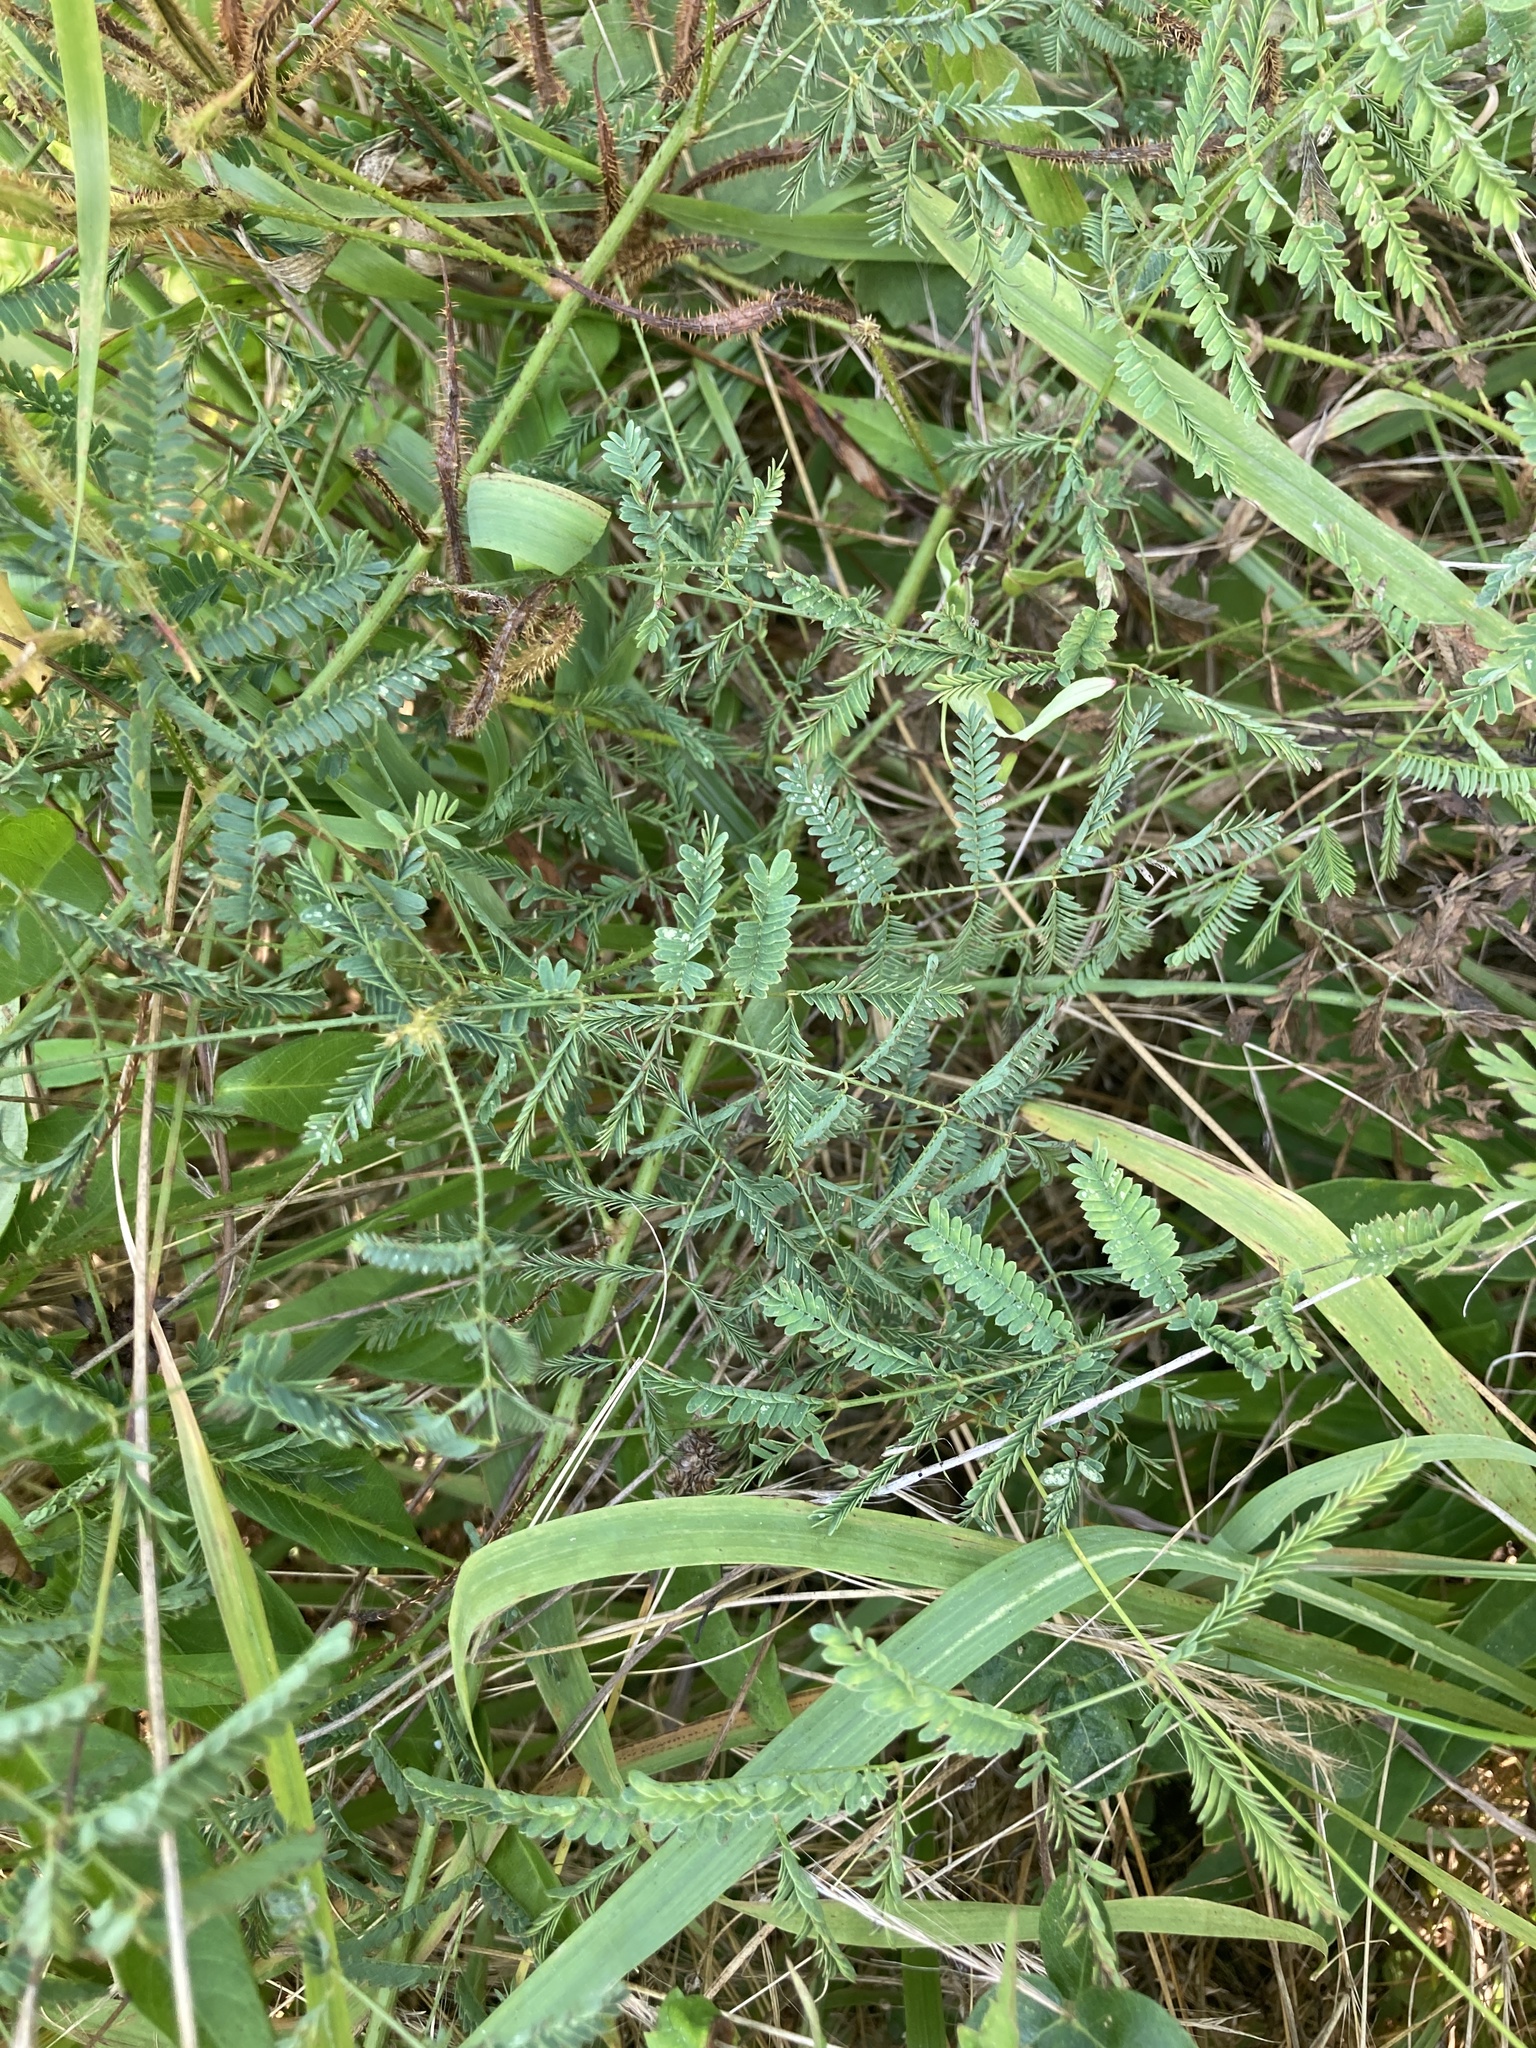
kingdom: Plantae
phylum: Tracheophyta
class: Magnoliopsida
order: Fabales
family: Fabaceae
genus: Mimosa
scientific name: Mimosa quadrivalvis
